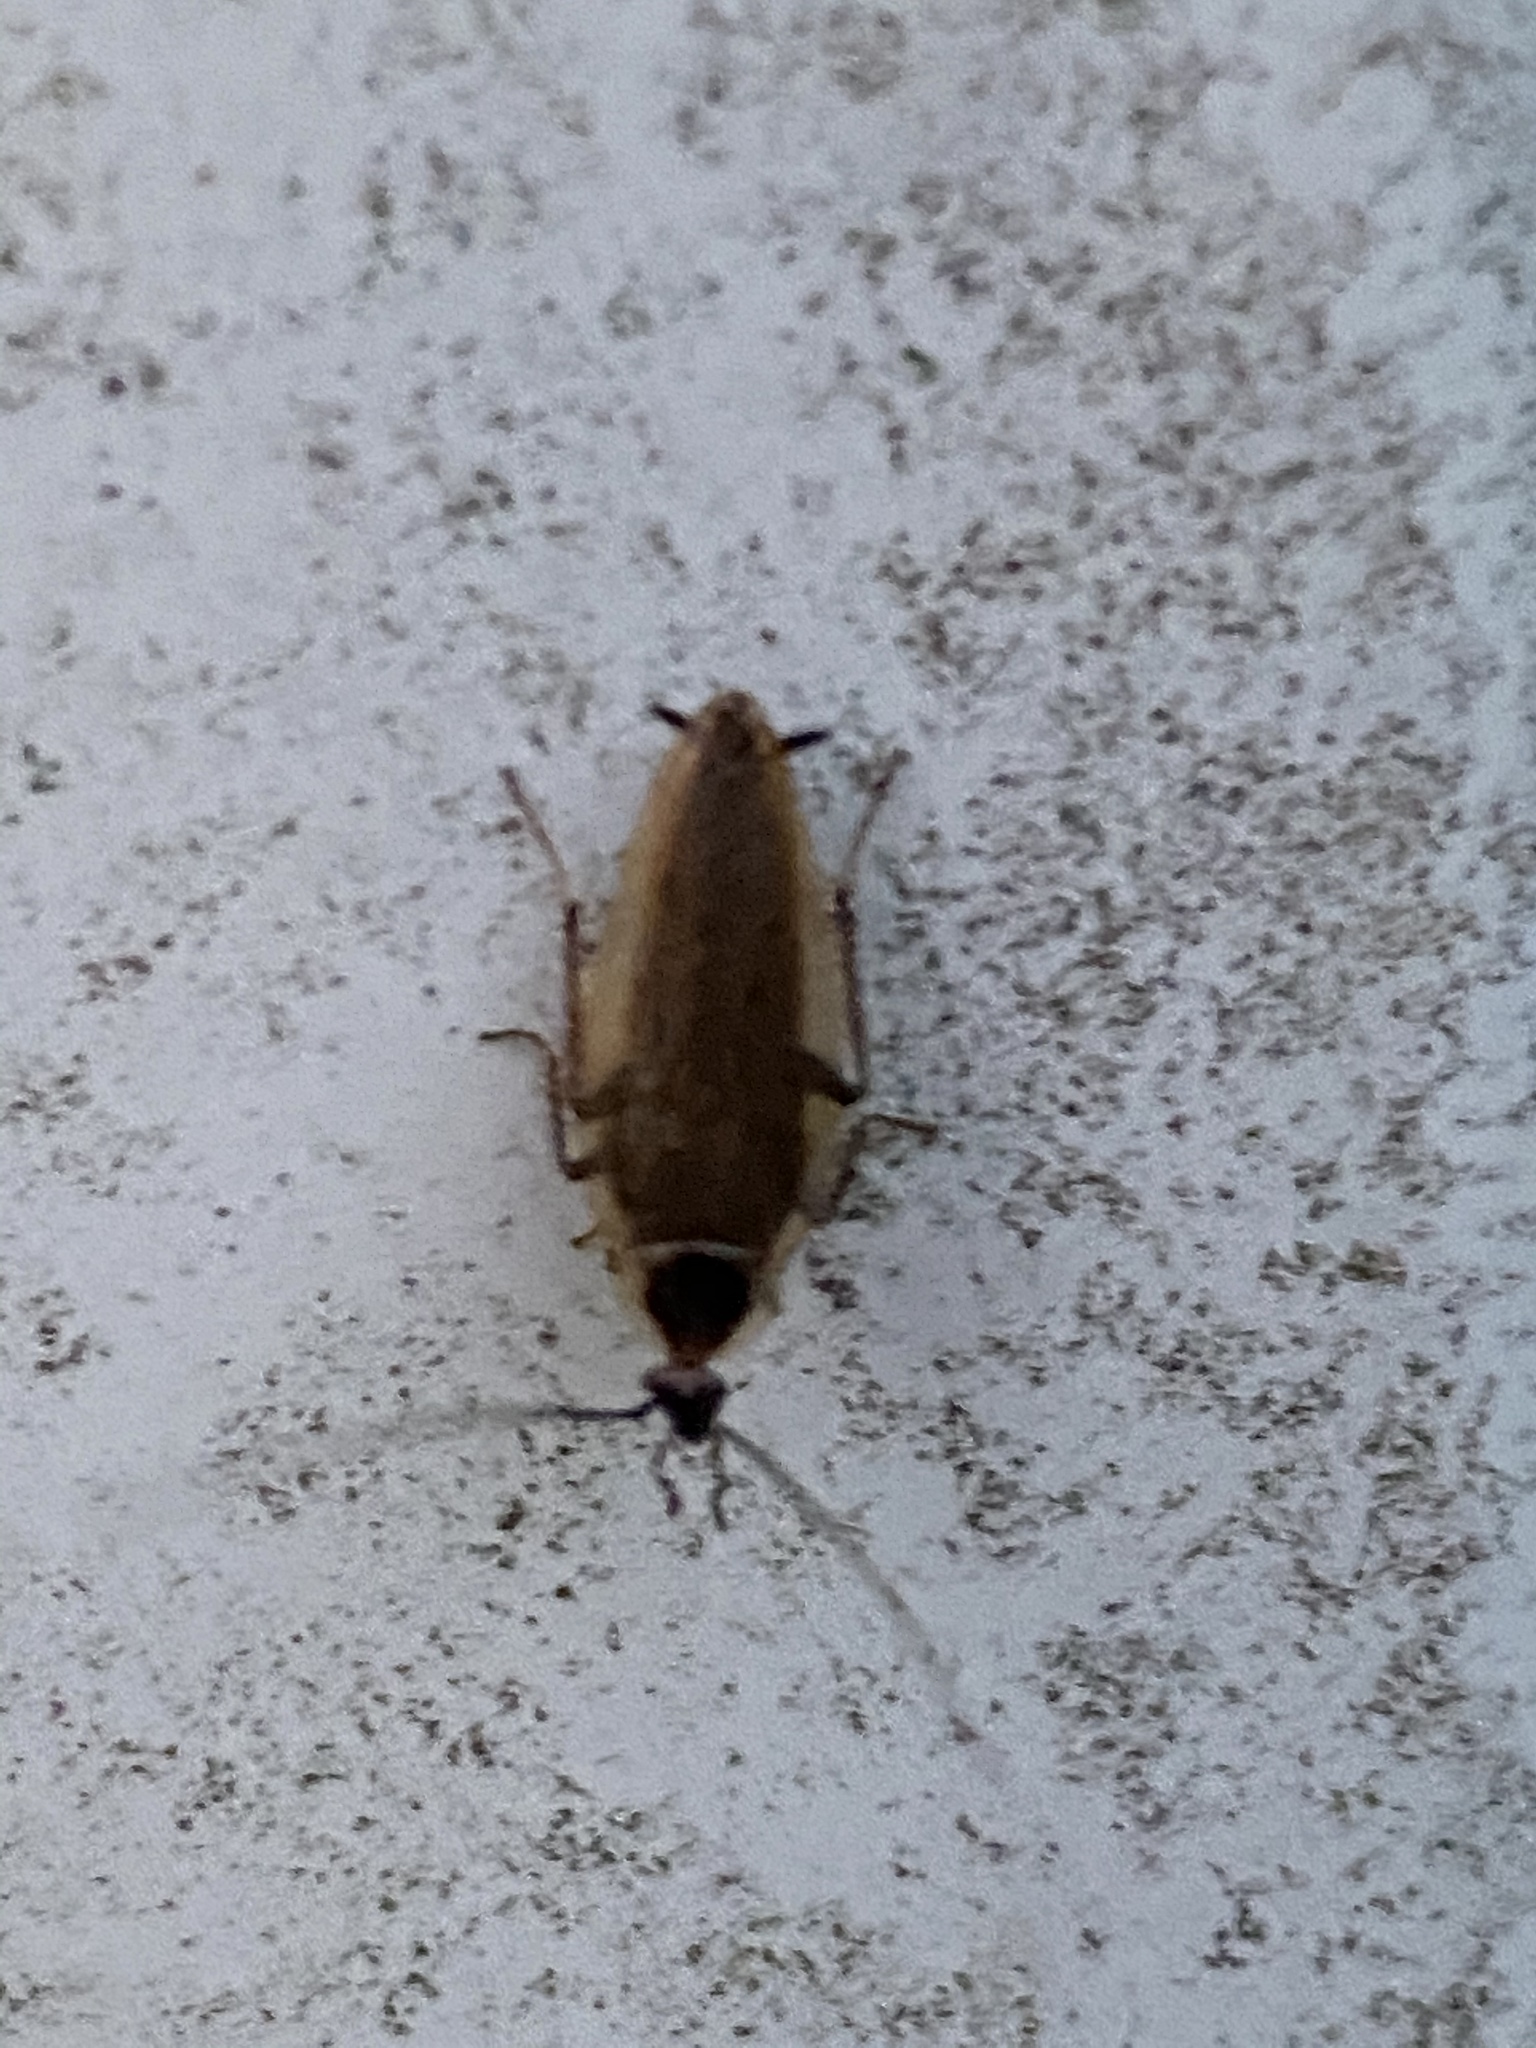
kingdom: Animalia
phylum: Arthropoda
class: Insecta
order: Blattodea
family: Ectobiidae
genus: Ectobius
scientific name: Ectobius lapponicus
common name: Dusky cockroach
